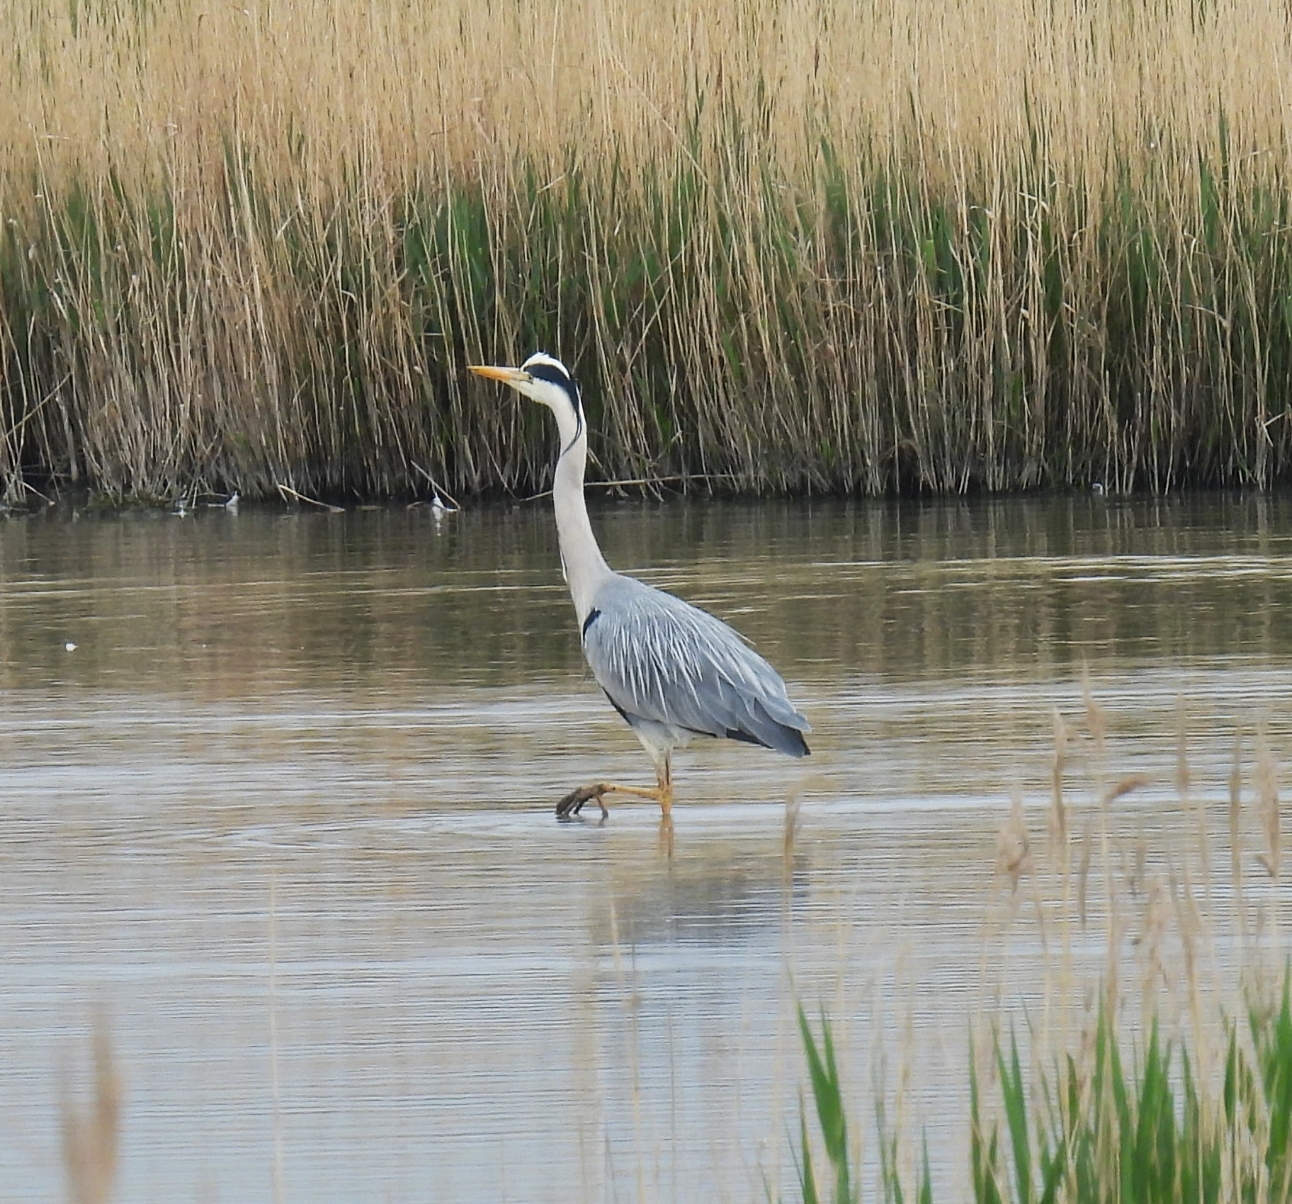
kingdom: Animalia
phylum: Chordata
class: Aves
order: Pelecaniformes
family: Ardeidae
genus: Ardea
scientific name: Ardea cinerea
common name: Grey heron
